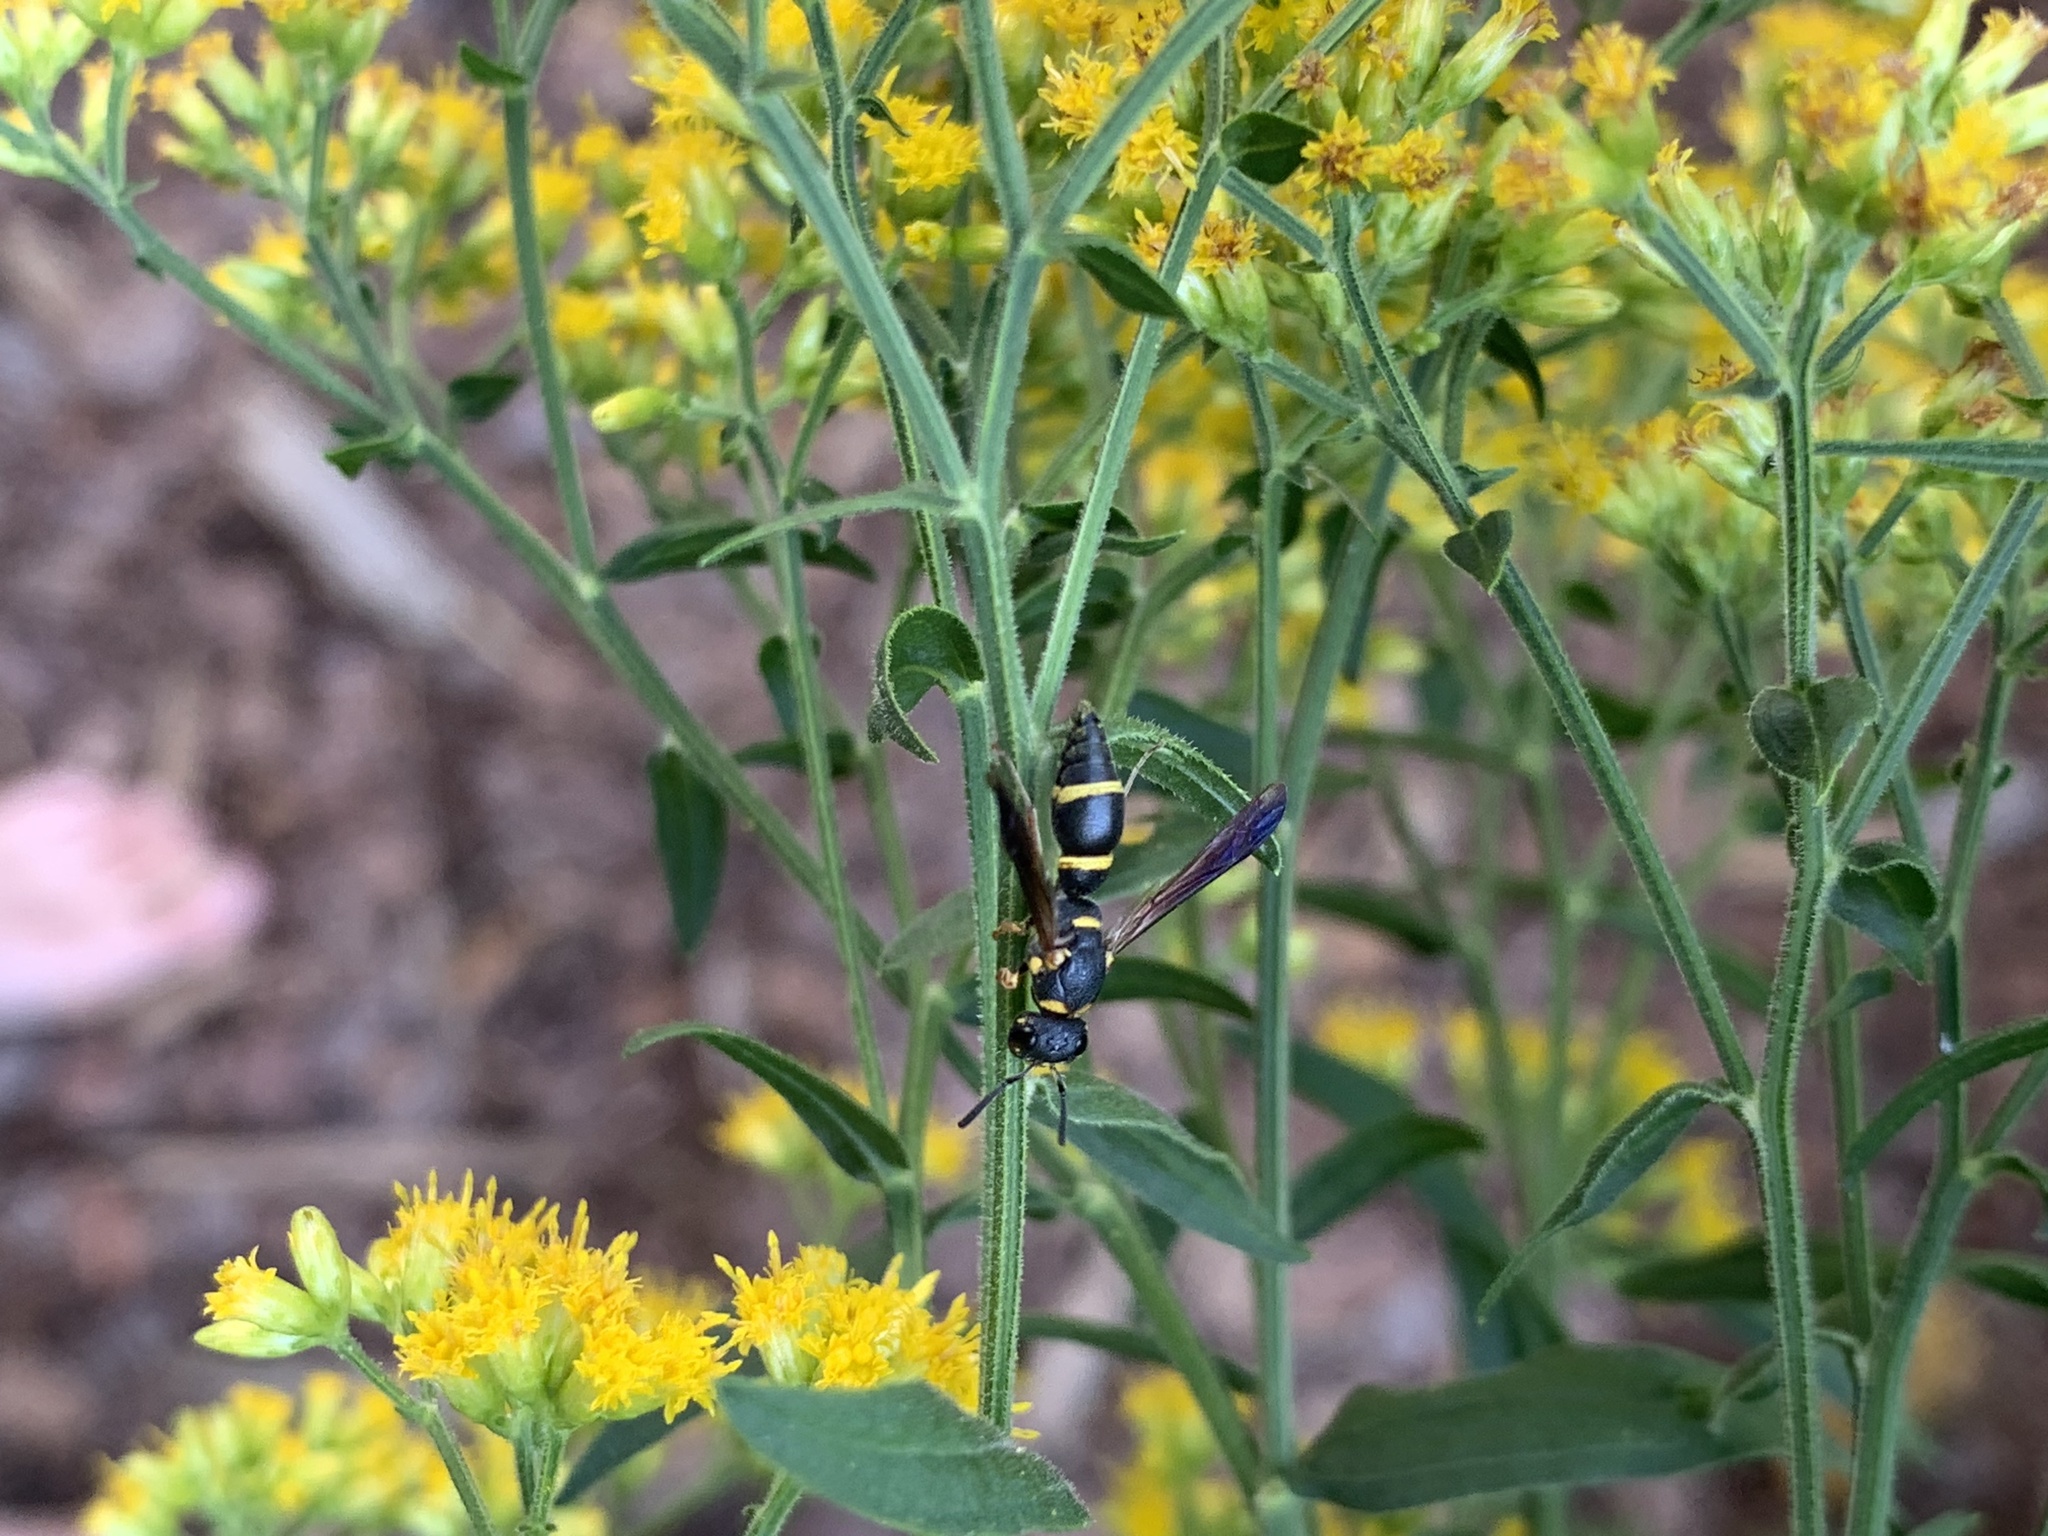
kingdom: Animalia
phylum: Arthropoda
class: Insecta
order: Hymenoptera
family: Eumenidae
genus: Parancistrocerus
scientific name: Parancistrocerus perennis
